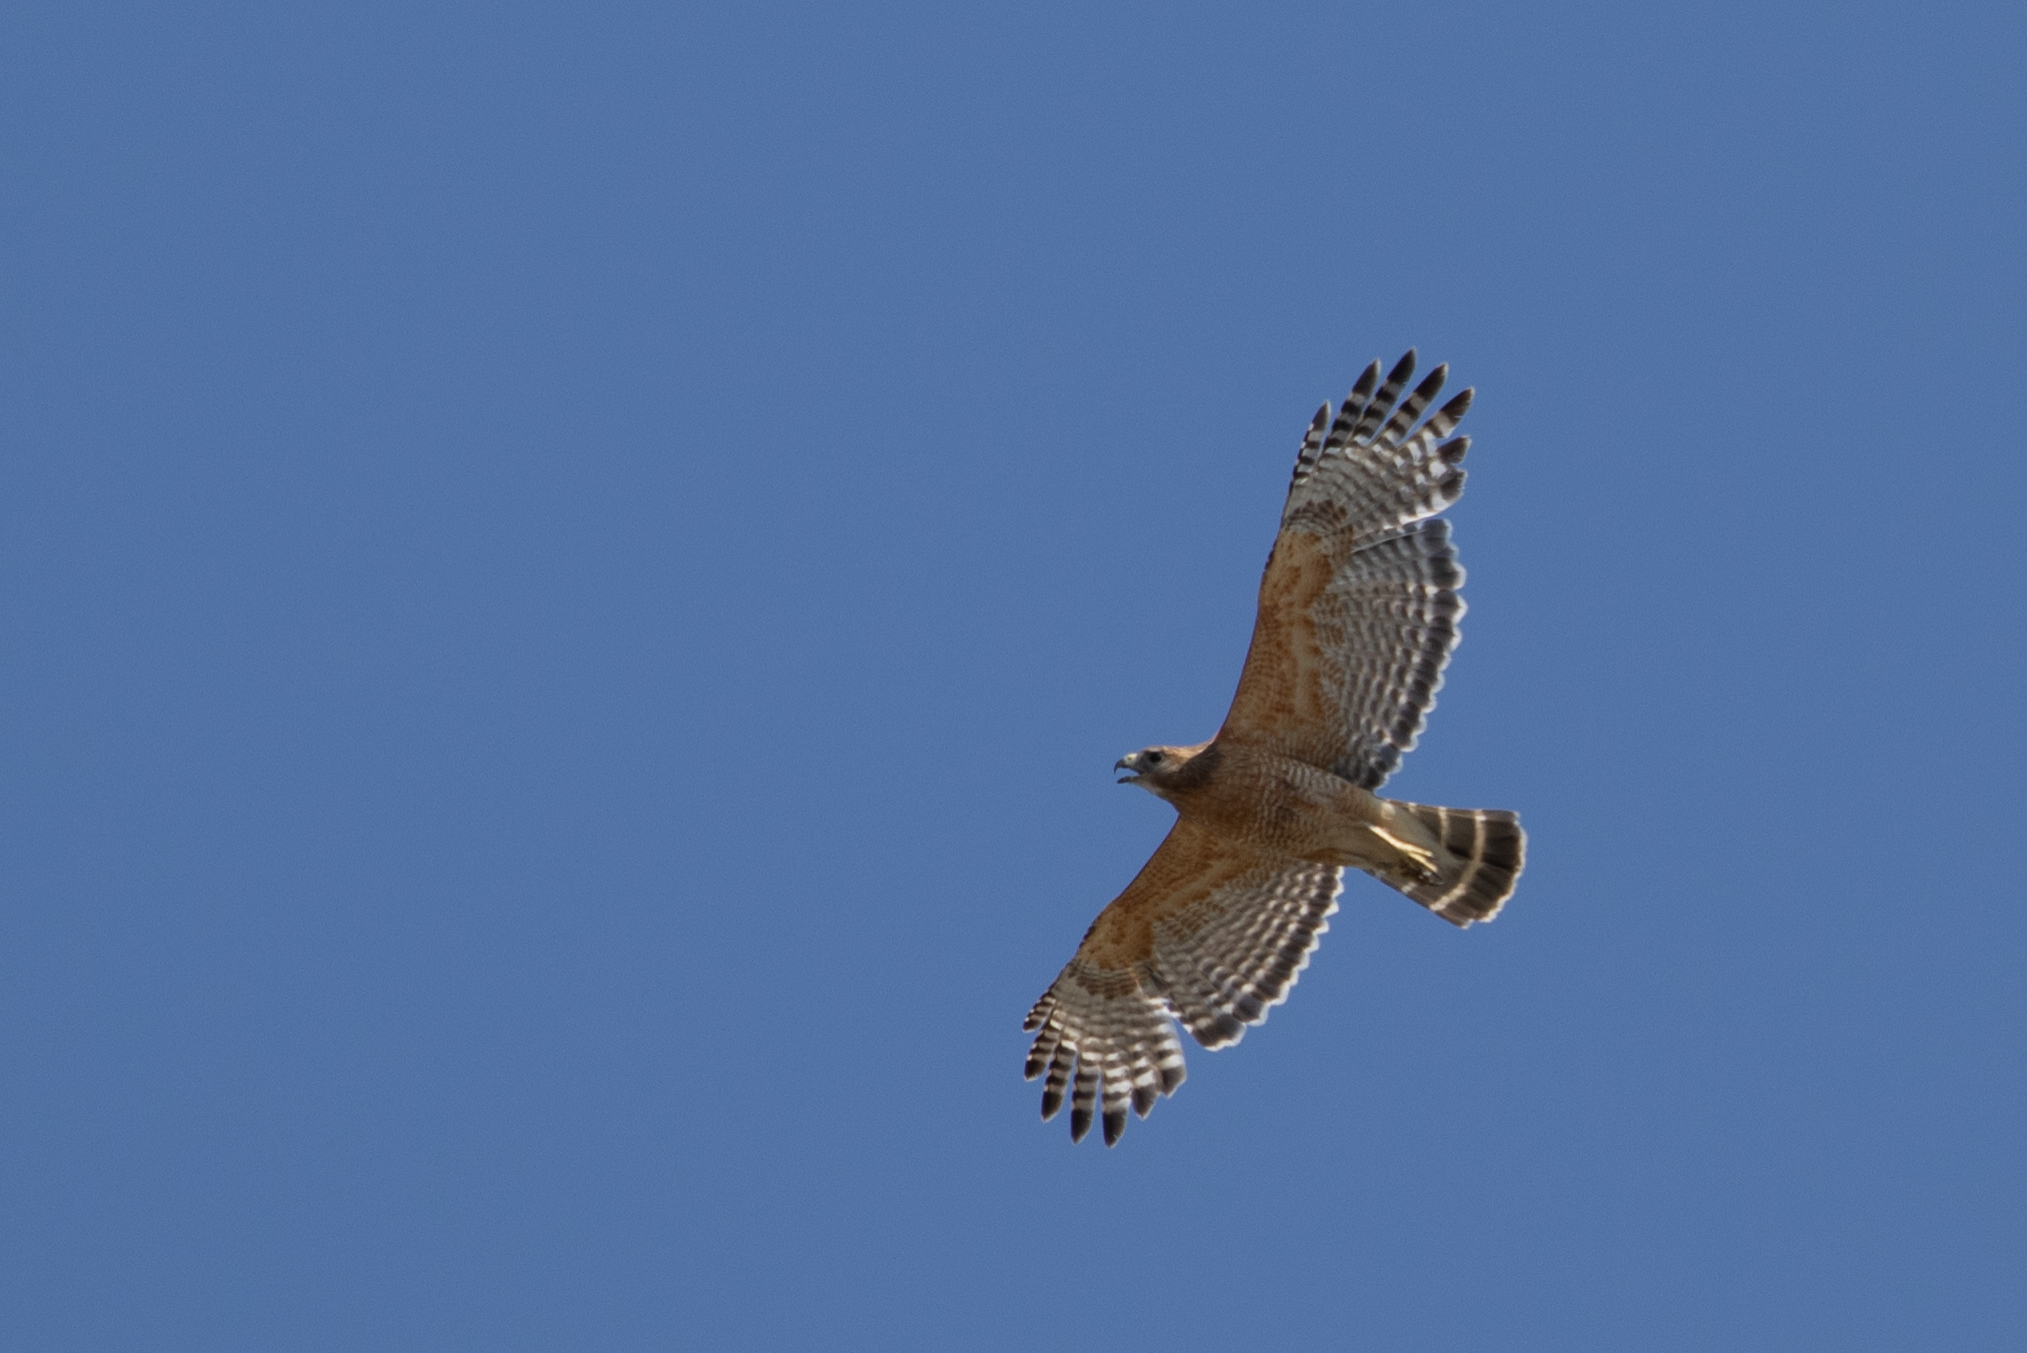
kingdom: Animalia
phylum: Chordata
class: Aves
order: Accipitriformes
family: Accipitridae
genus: Buteo
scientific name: Buteo lineatus
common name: Red-shouldered hawk
